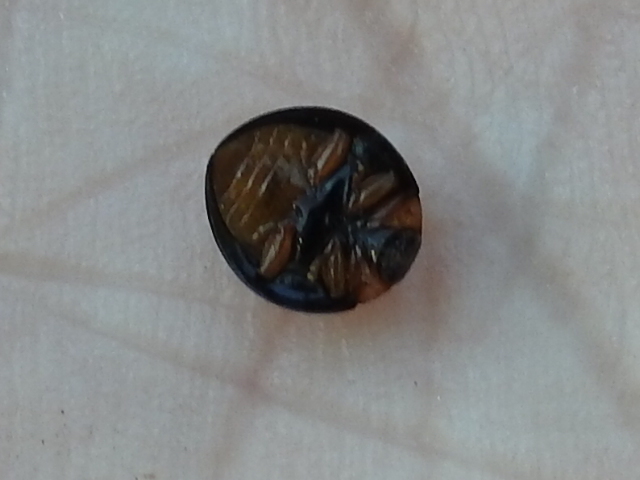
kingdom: Animalia
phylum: Arthropoda
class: Insecta
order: Coleoptera
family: Coccinellidae
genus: Curinus
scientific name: Curinus coeruleus
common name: Ladybird beetle
